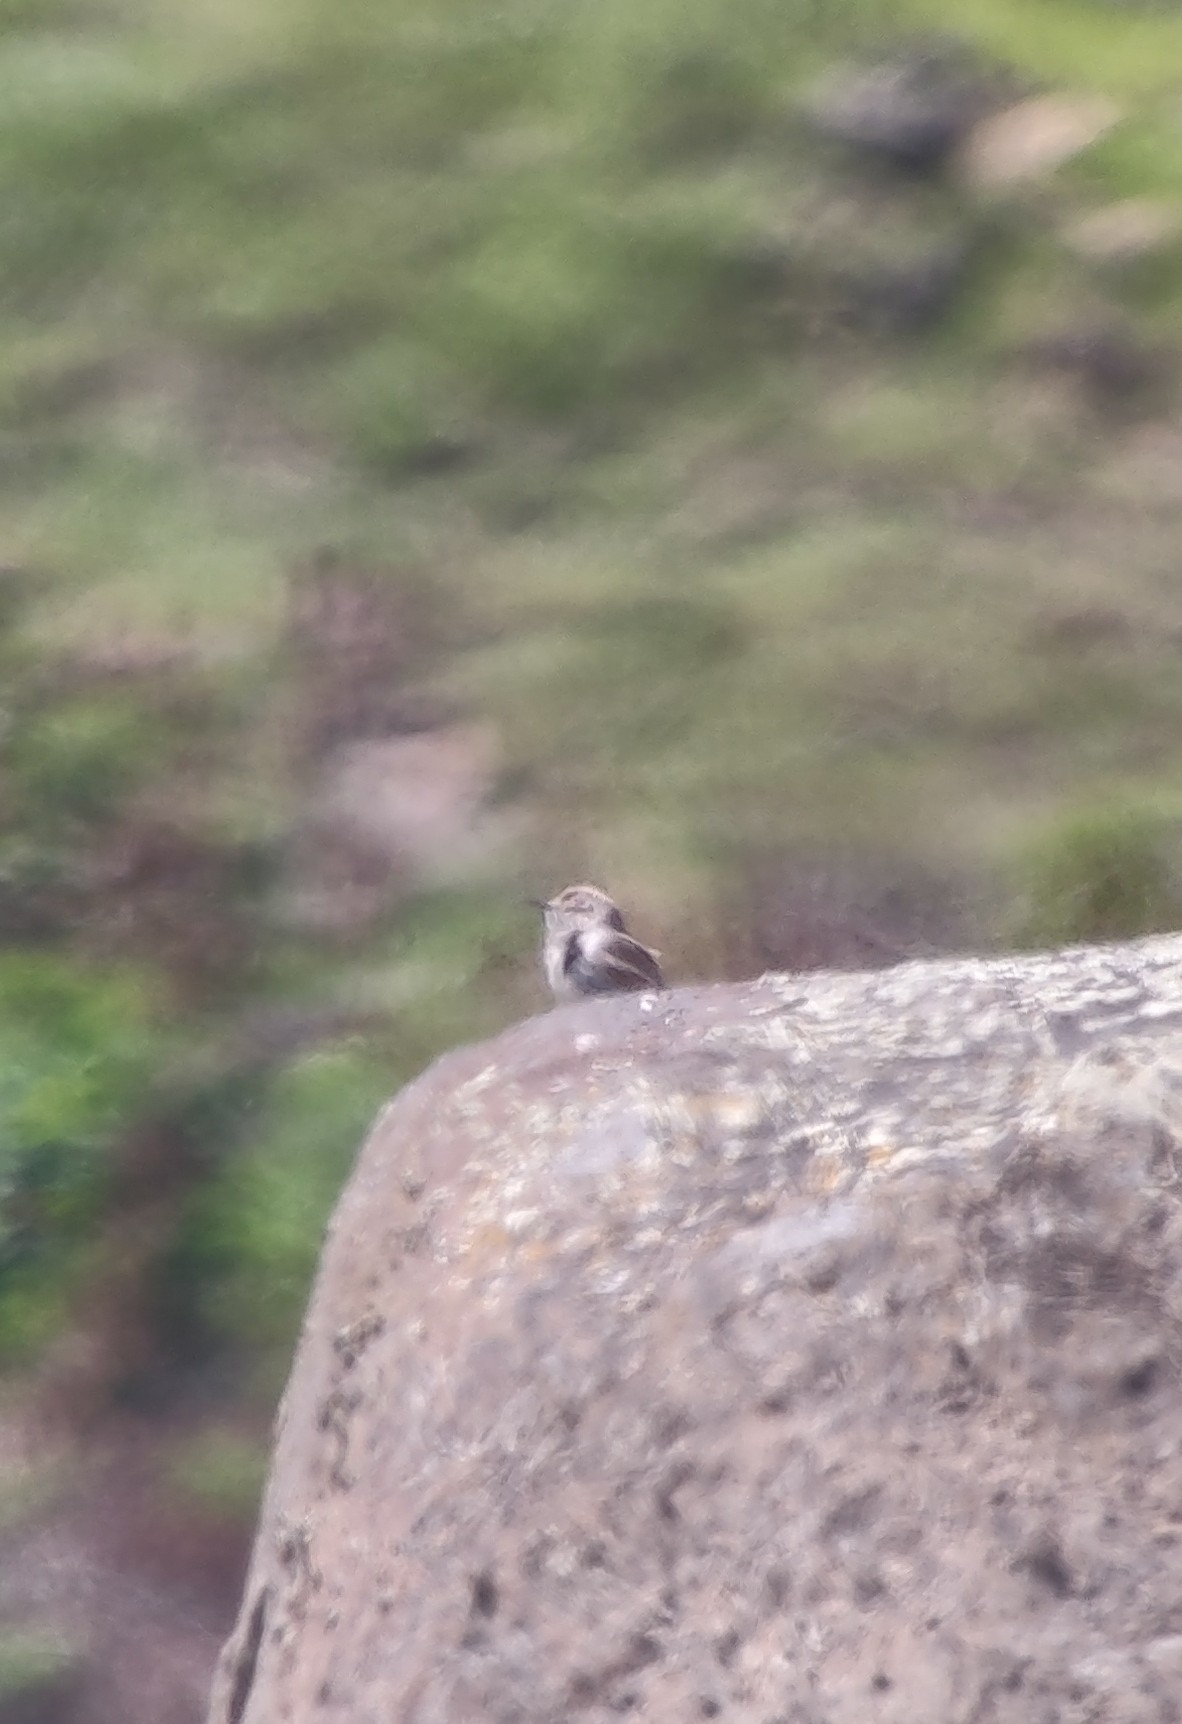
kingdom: Animalia
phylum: Chordata
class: Aves
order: Passeriformes
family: Troglodytidae
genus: Salpinctes
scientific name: Salpinctes obsoletus
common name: Rock wren
